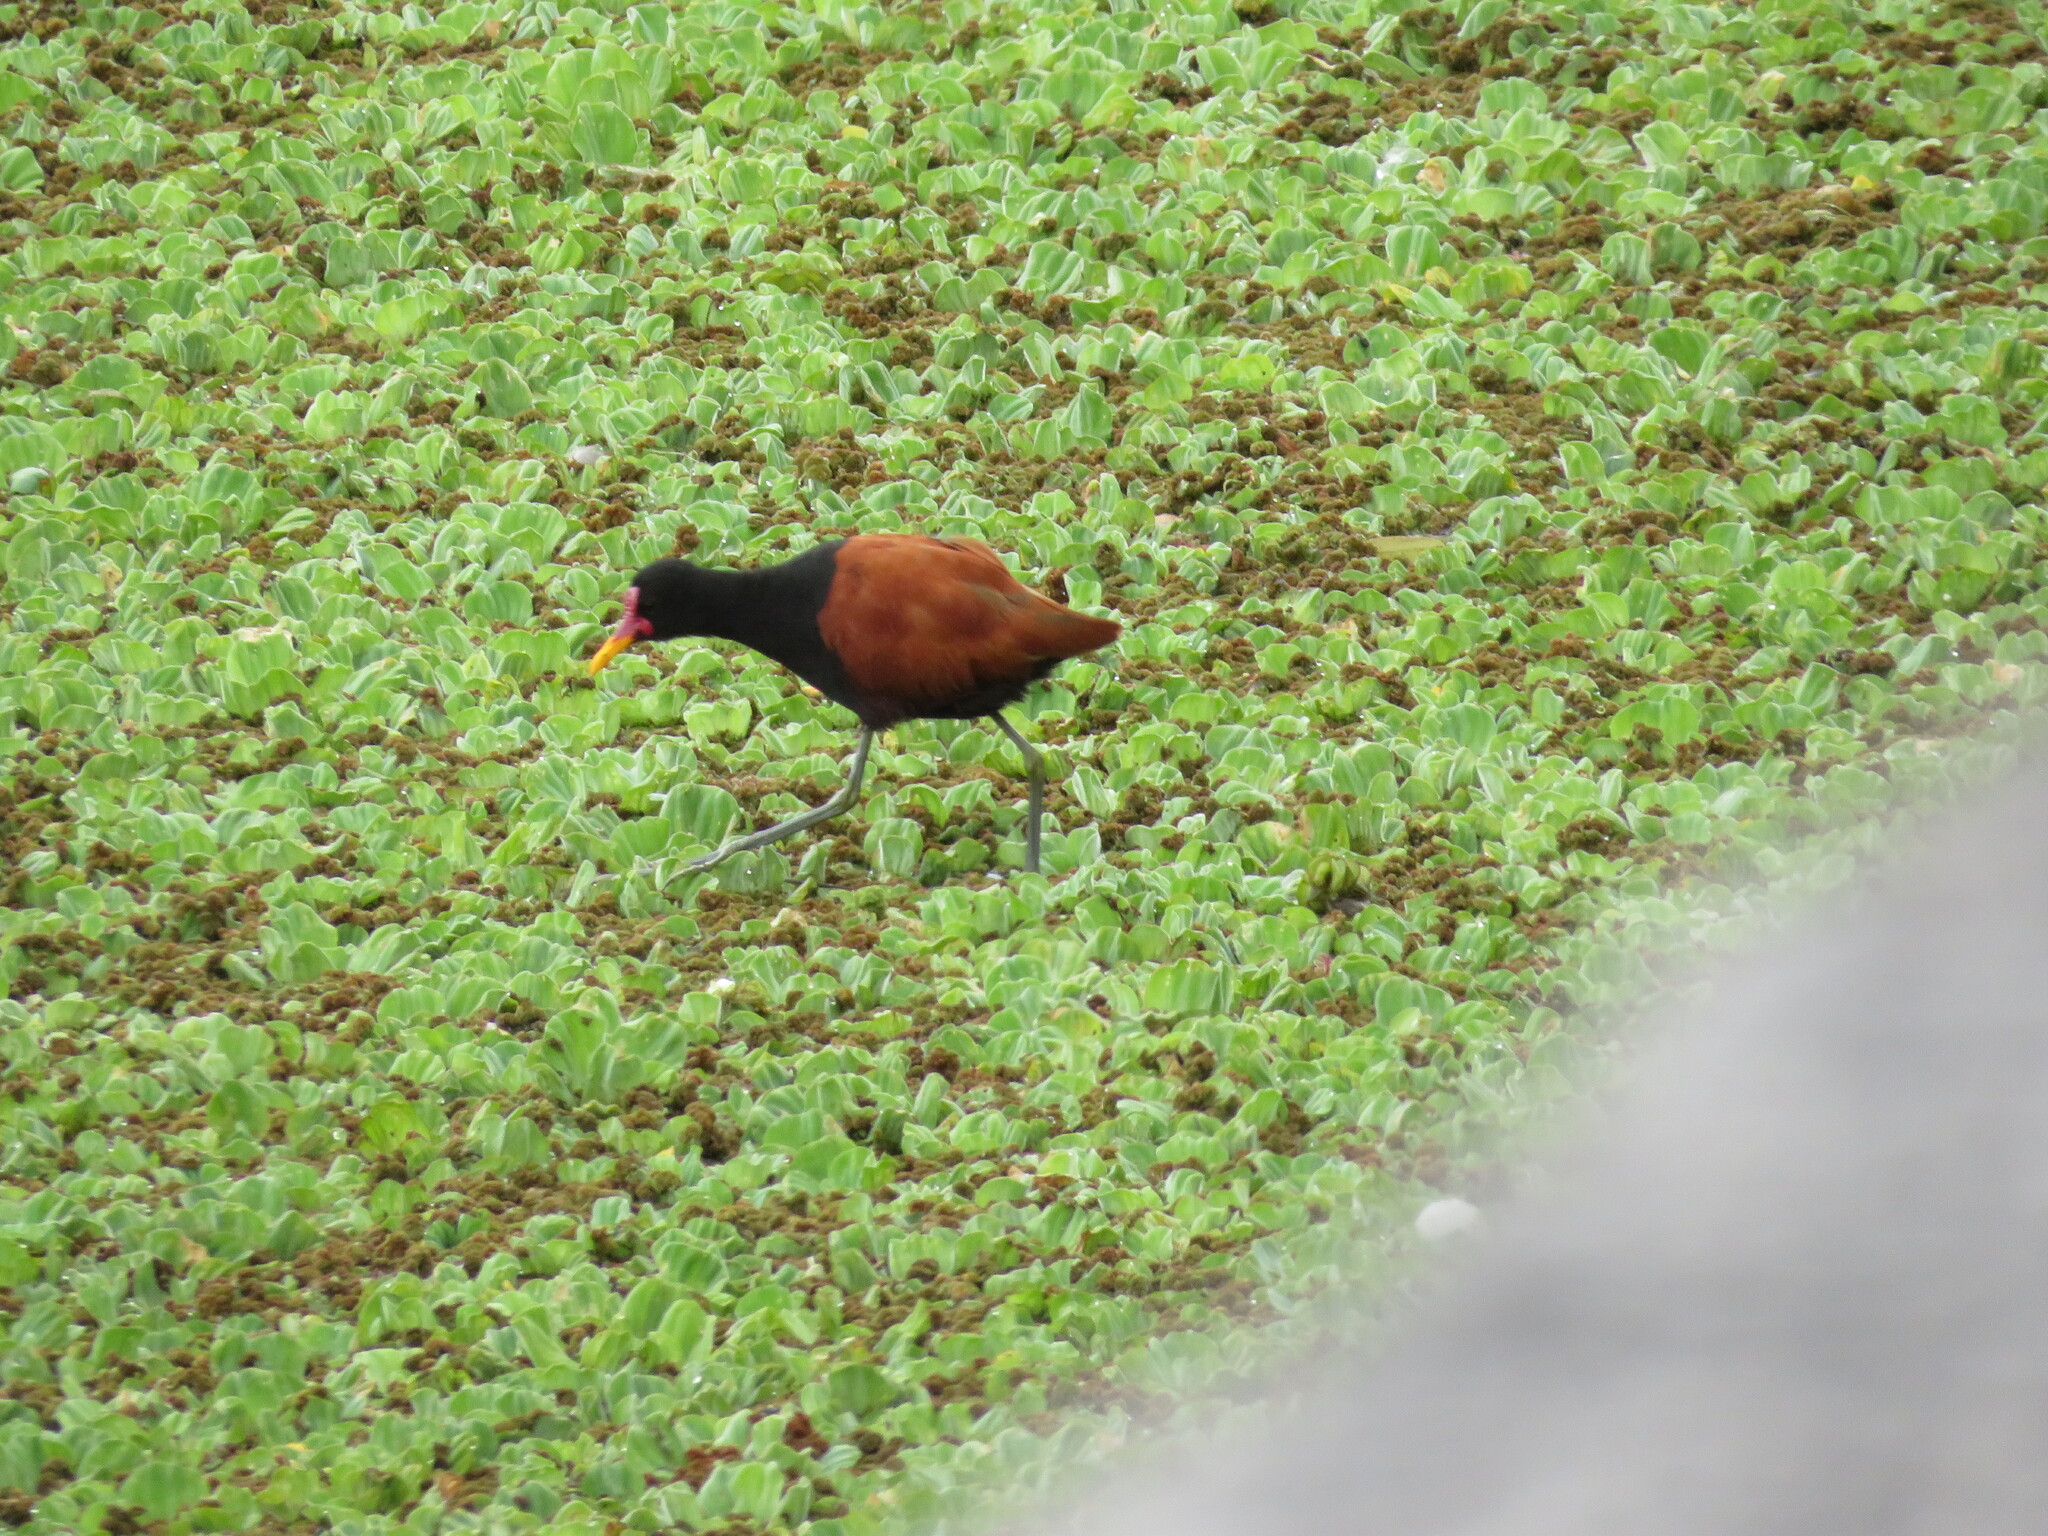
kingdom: Animalia
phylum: Chordata
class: Aves
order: Charadriiformes
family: Jacanidae
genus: Jacana
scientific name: Jacana jacana
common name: Wattled jacana
